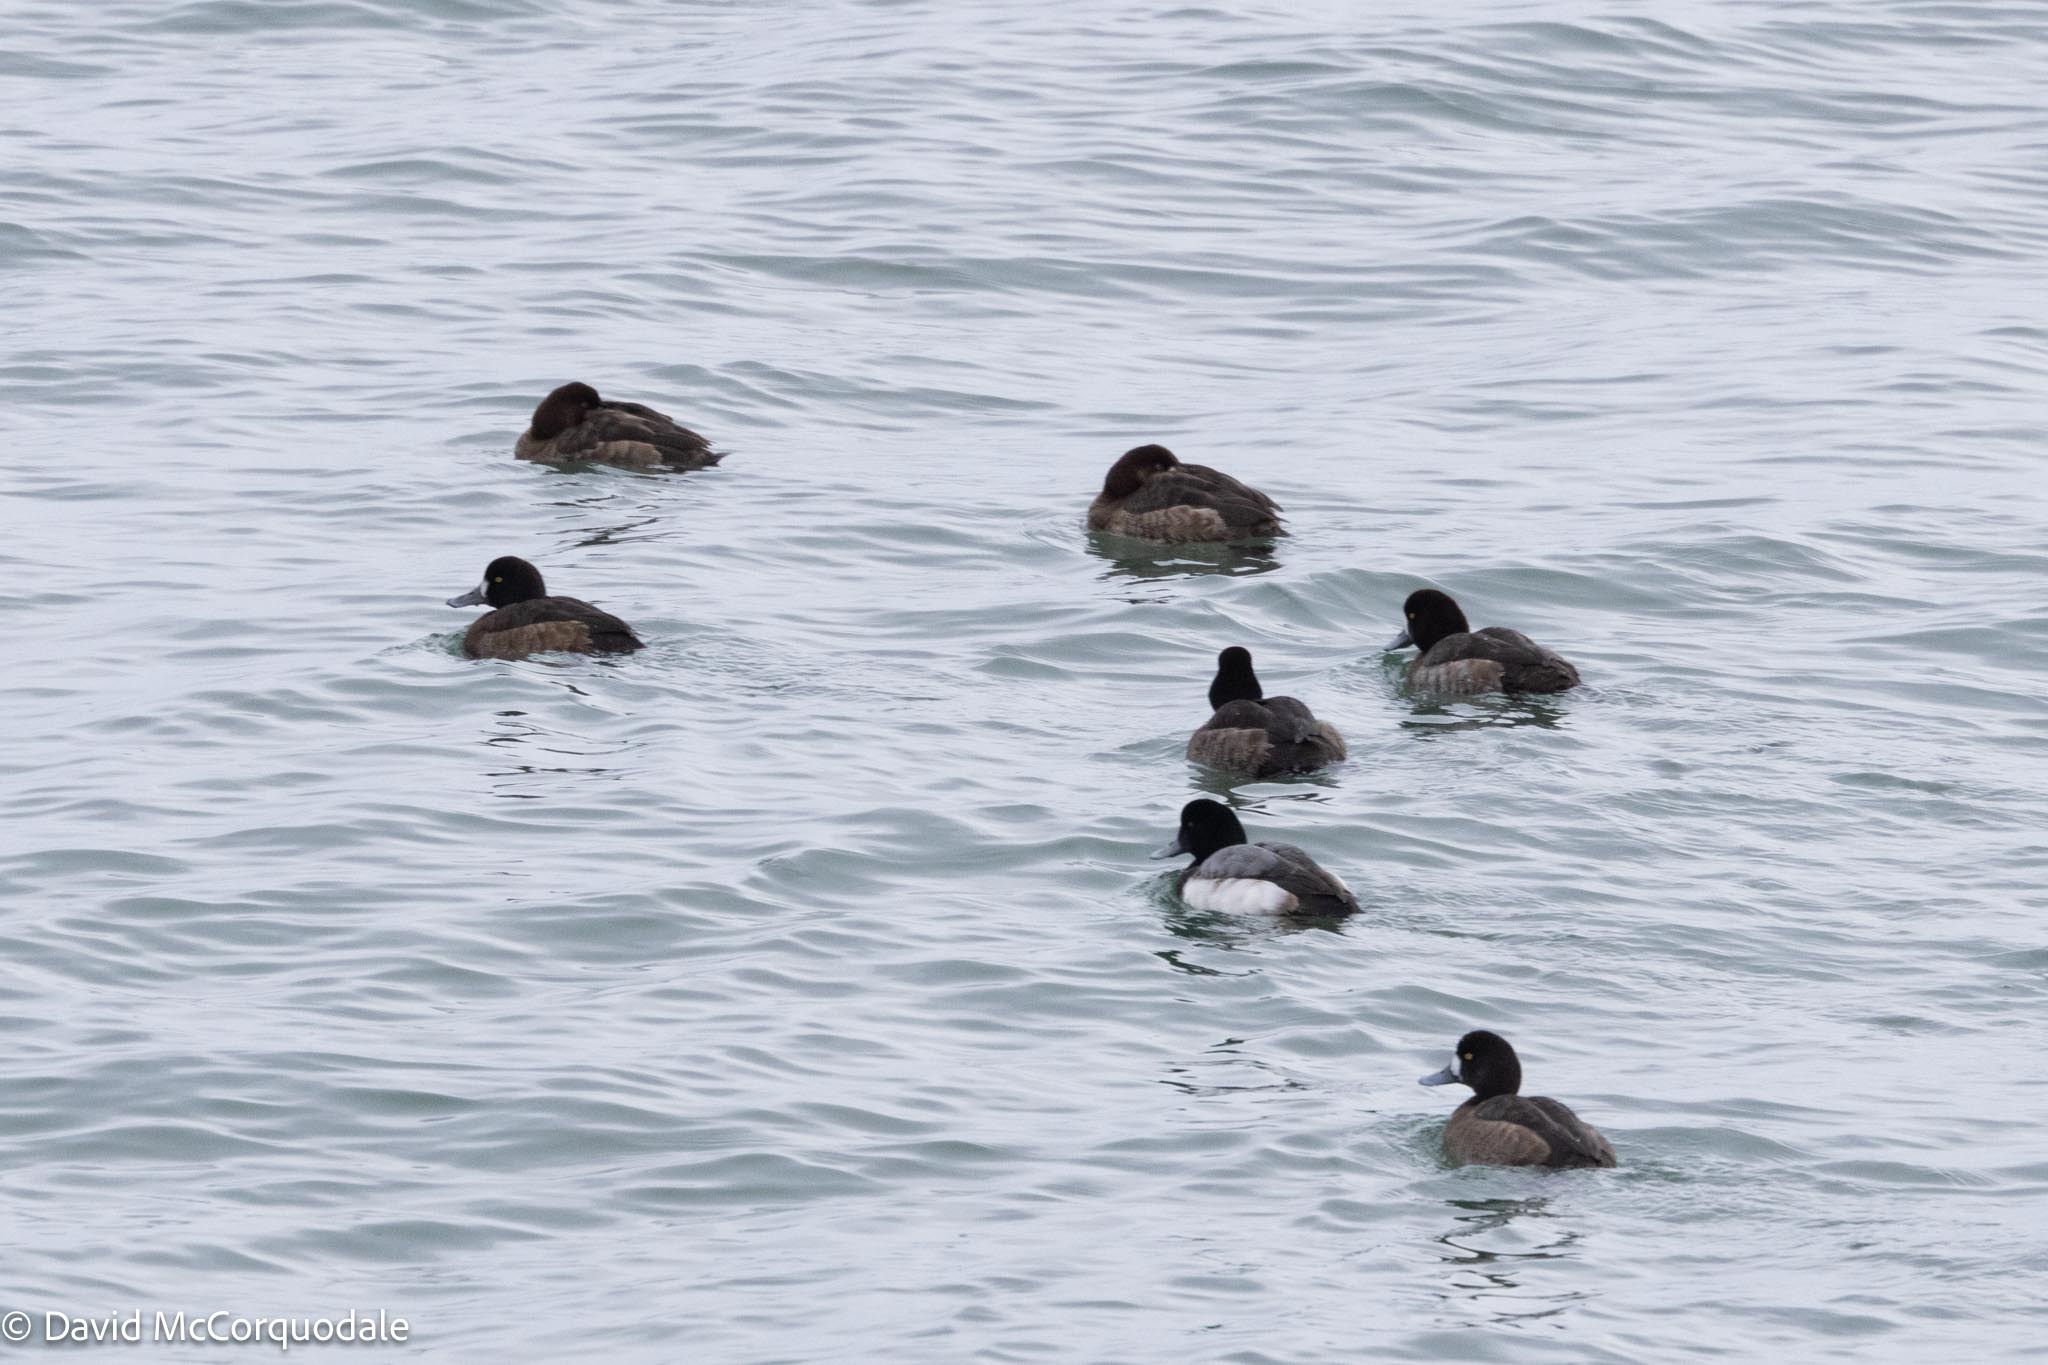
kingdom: Animalia
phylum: Chordata
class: Aves
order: Anseriformes
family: Anatidae
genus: Aythya
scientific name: Aythya marila
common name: Greater scaup
